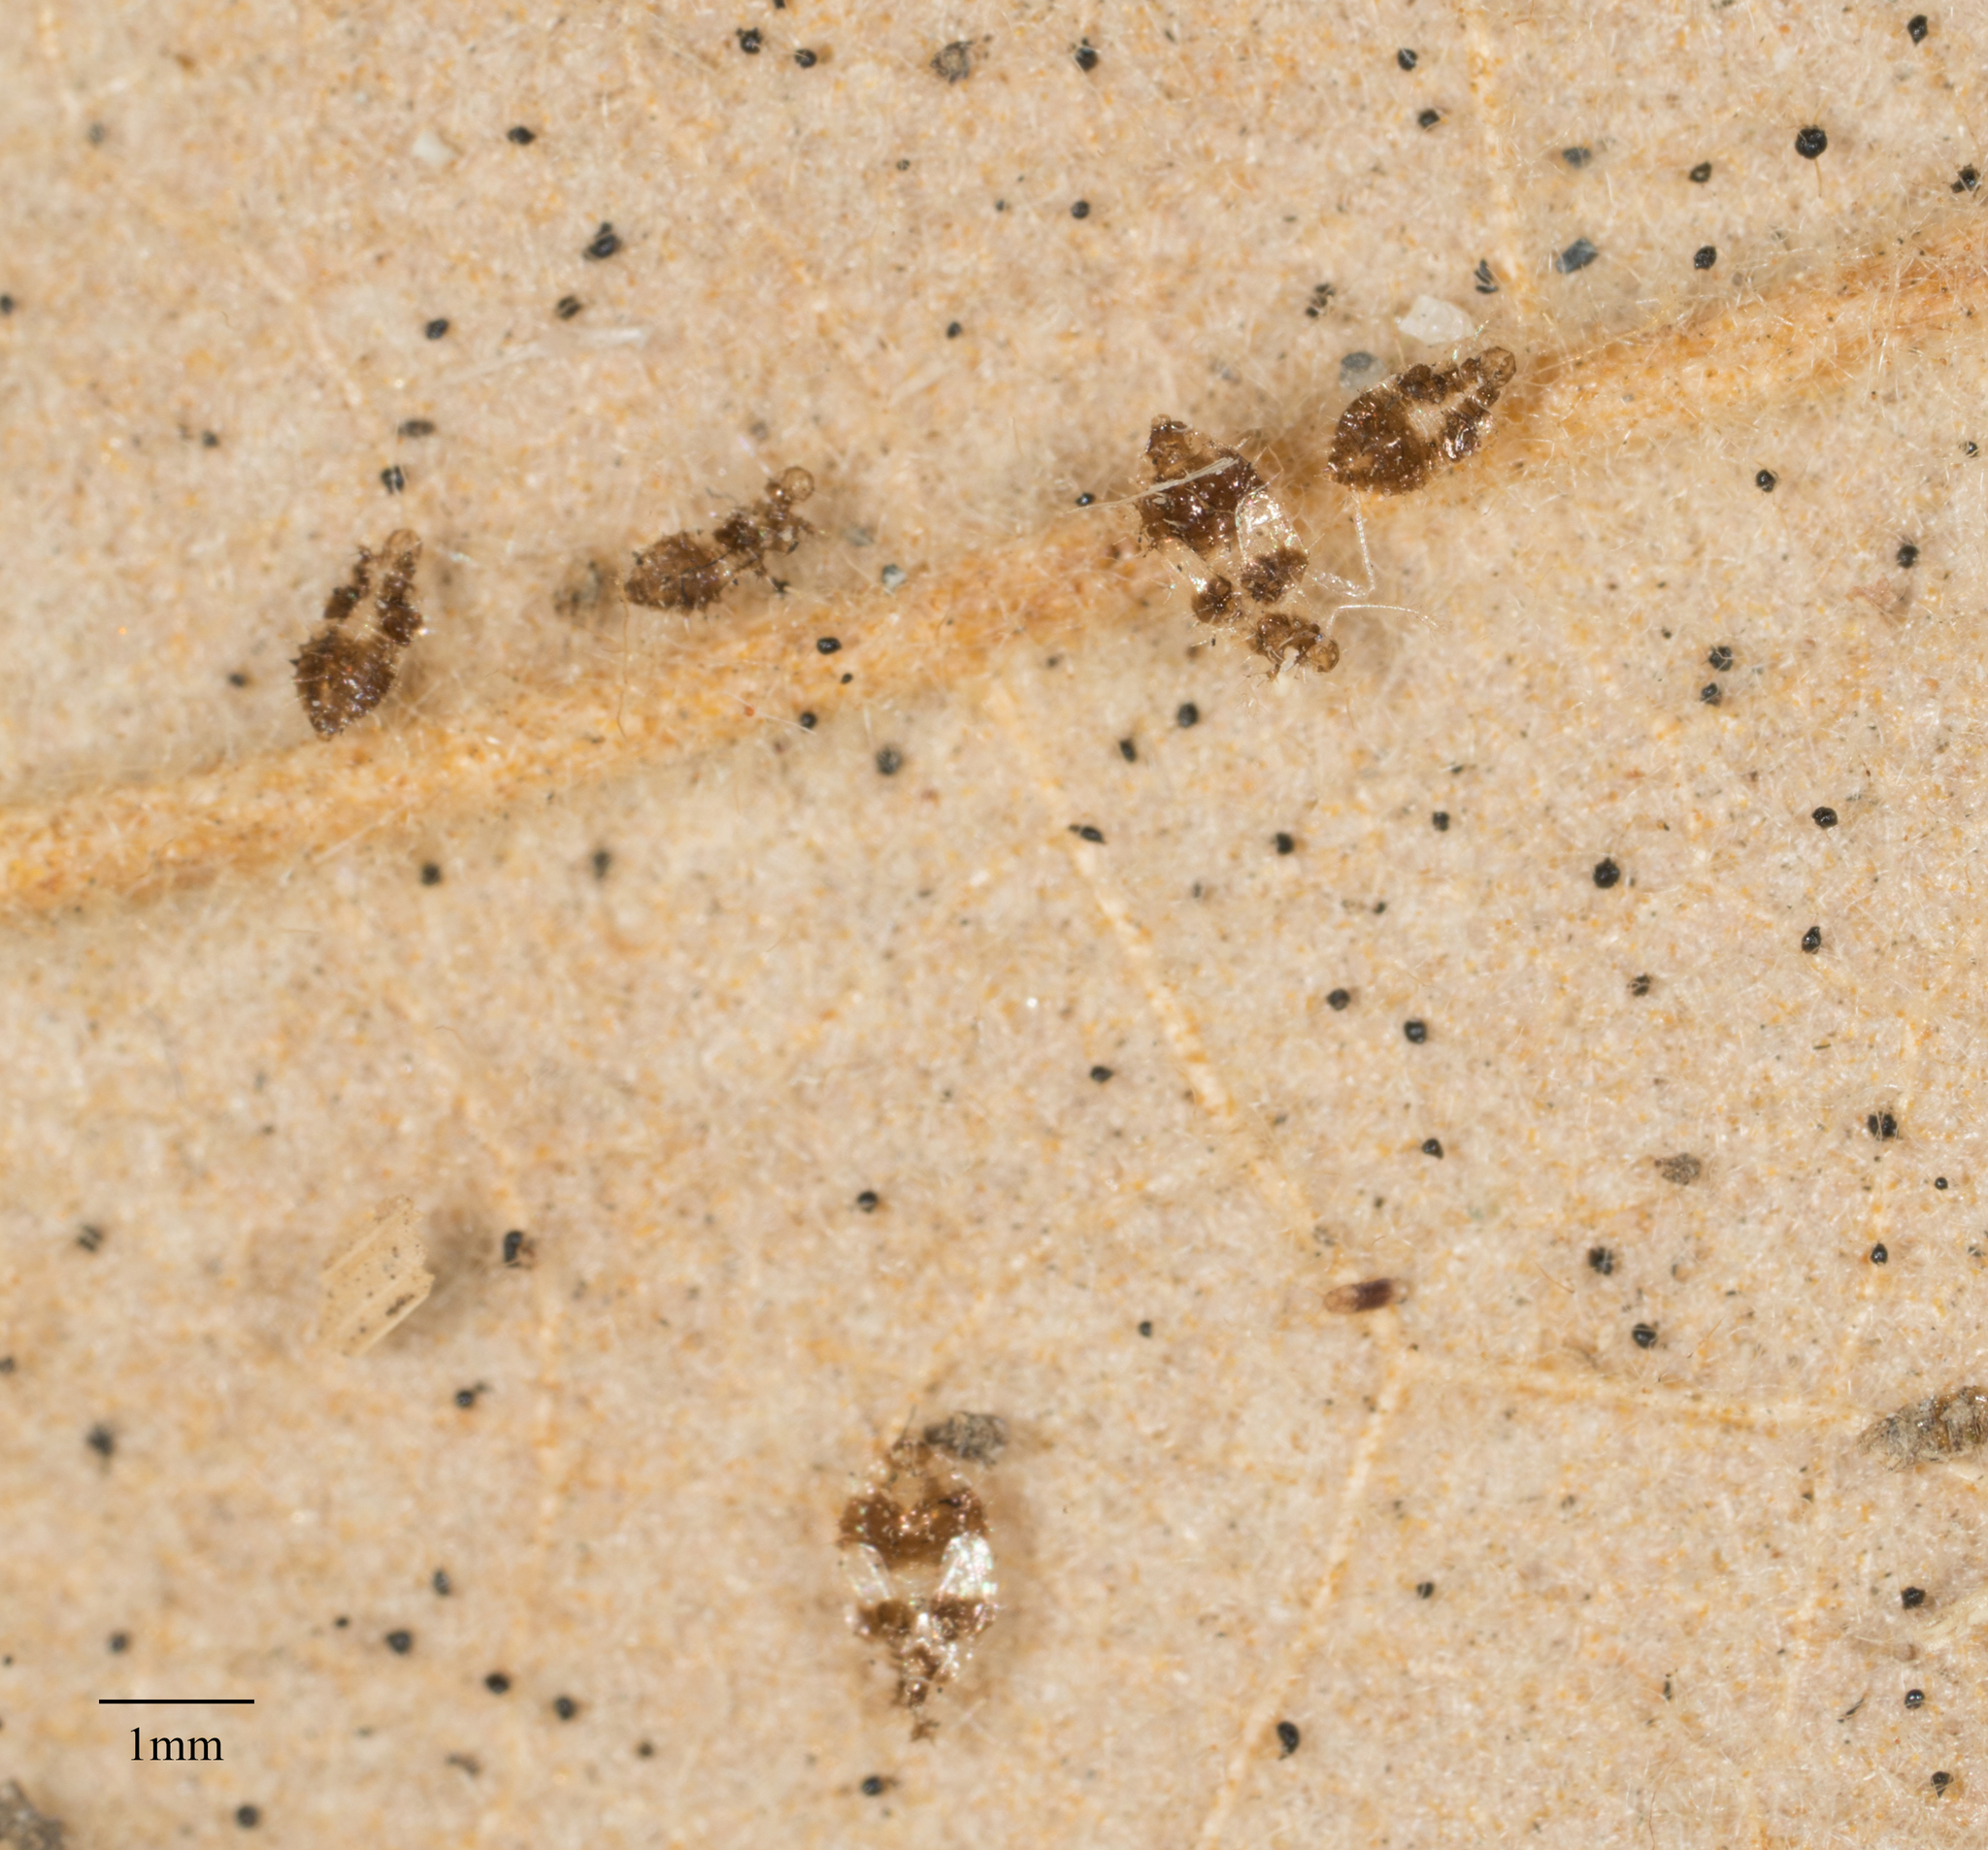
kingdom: Animalia
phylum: Arthropoda
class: Insecta
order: Hemiptera
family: Tingidae
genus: Corythucha
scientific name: Corythucha confraterna
